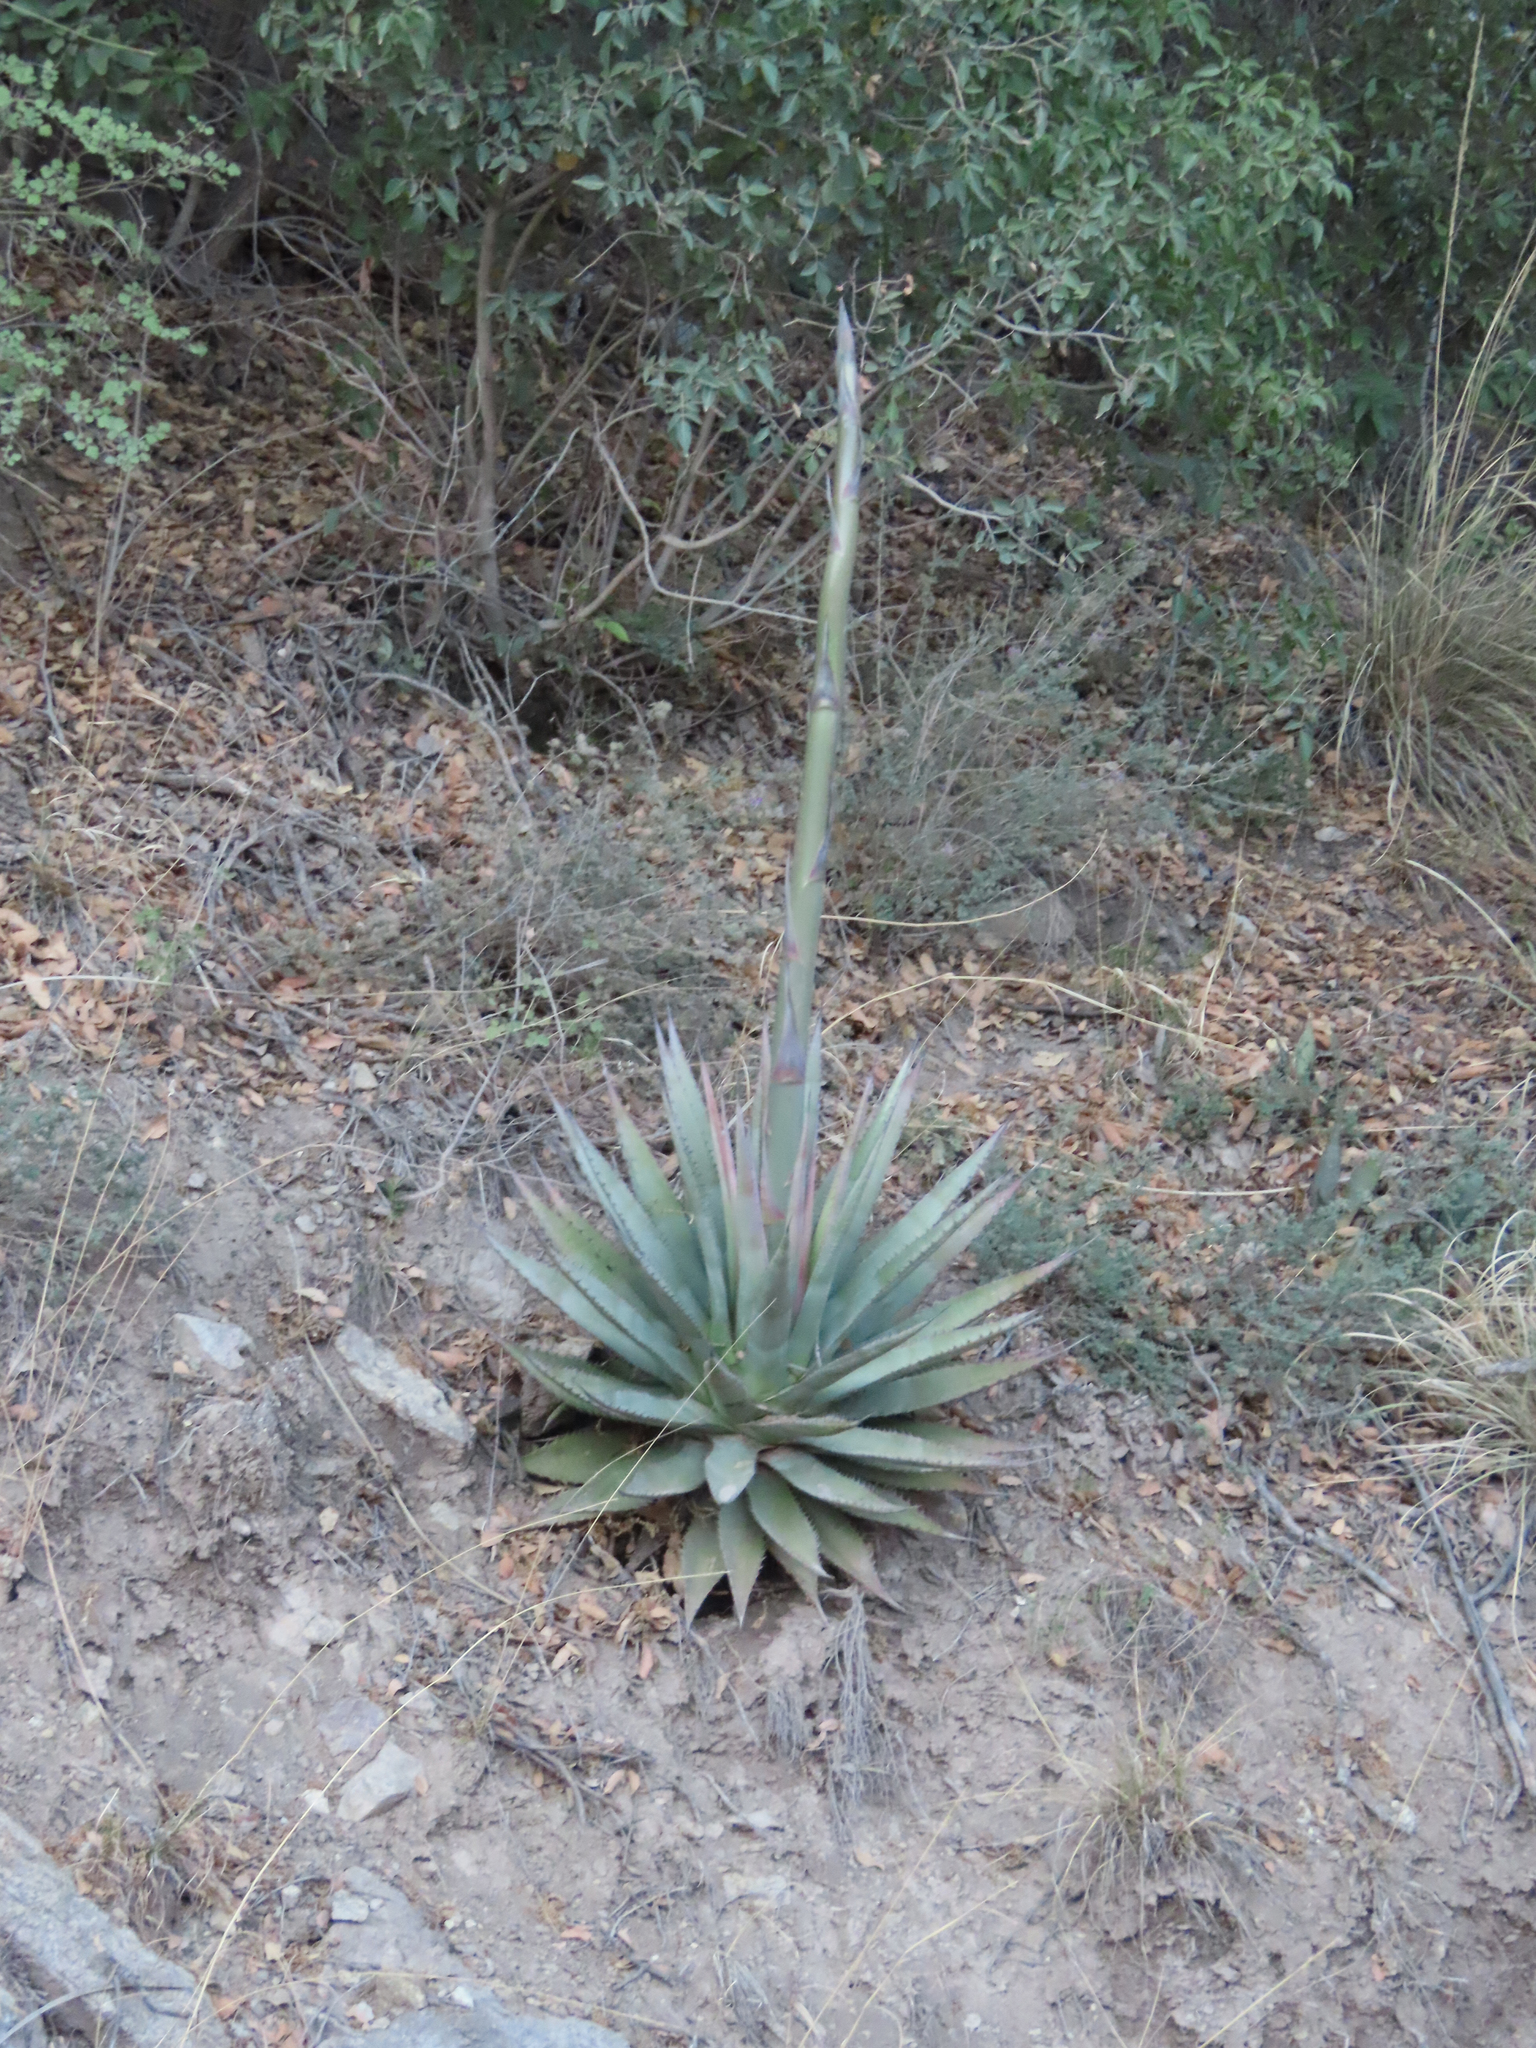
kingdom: Plantae
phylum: Tracheophyta
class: Liliopsida
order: Asparagales
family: Asparagaceae
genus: Agave
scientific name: Agave palmeri
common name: Palmer agave
